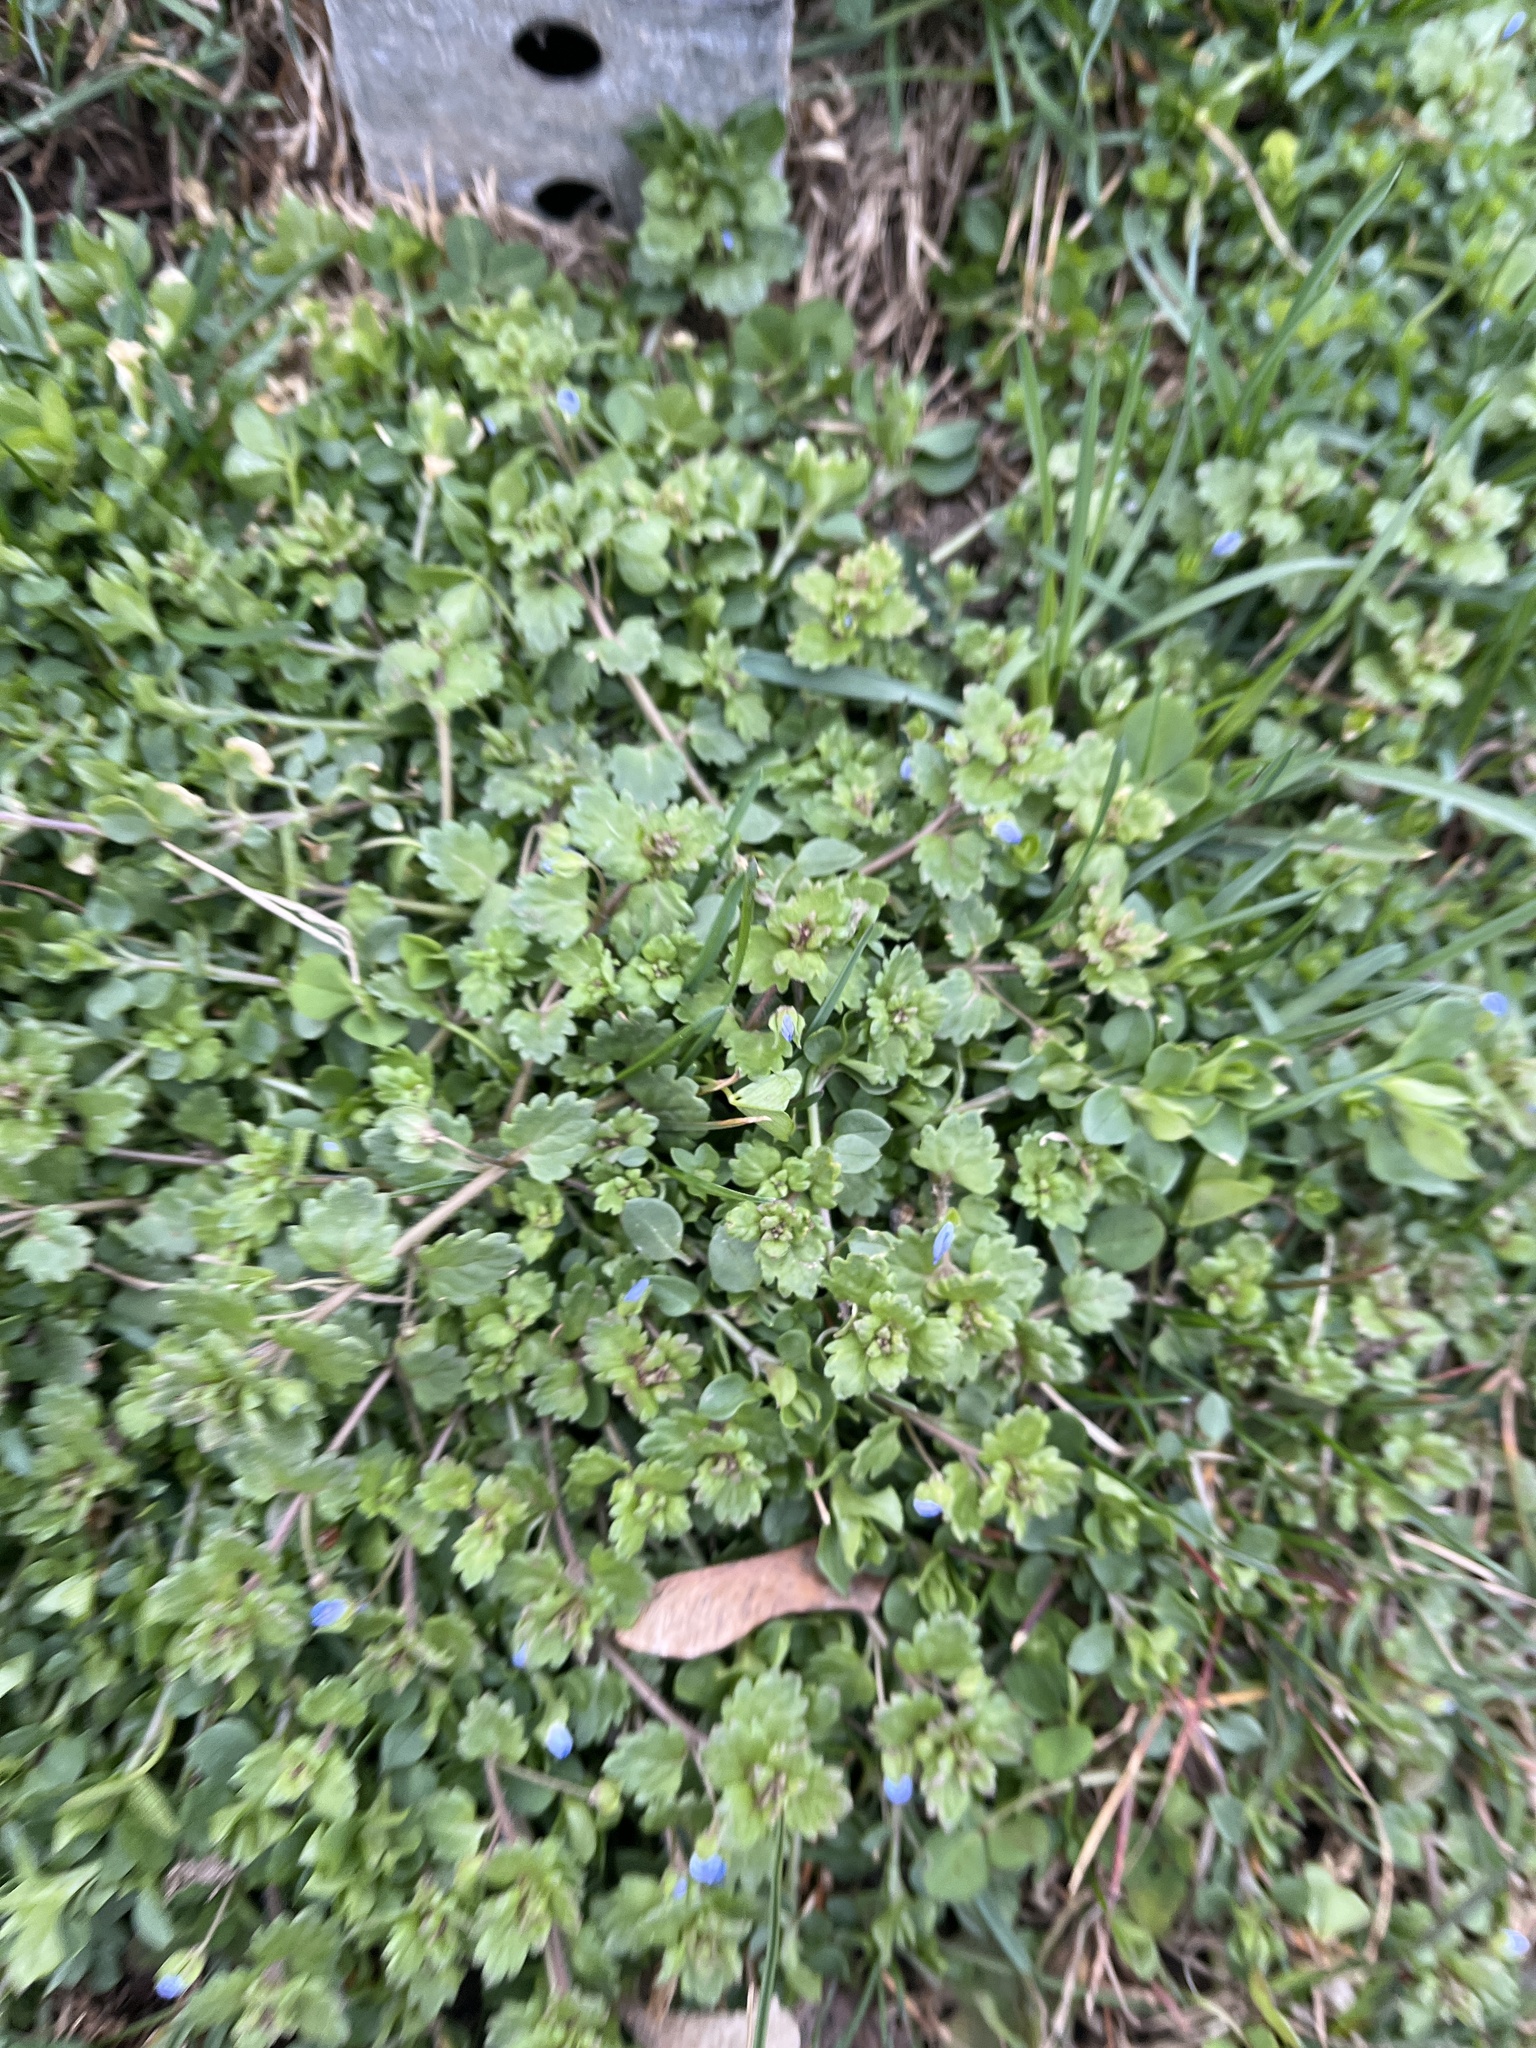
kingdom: Plantae
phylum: Tracheophyta
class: Magnoliopsida
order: Lamiales
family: Plantaginaceae
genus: Veronica
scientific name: Veronica polita
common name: Grey field-speedwell
